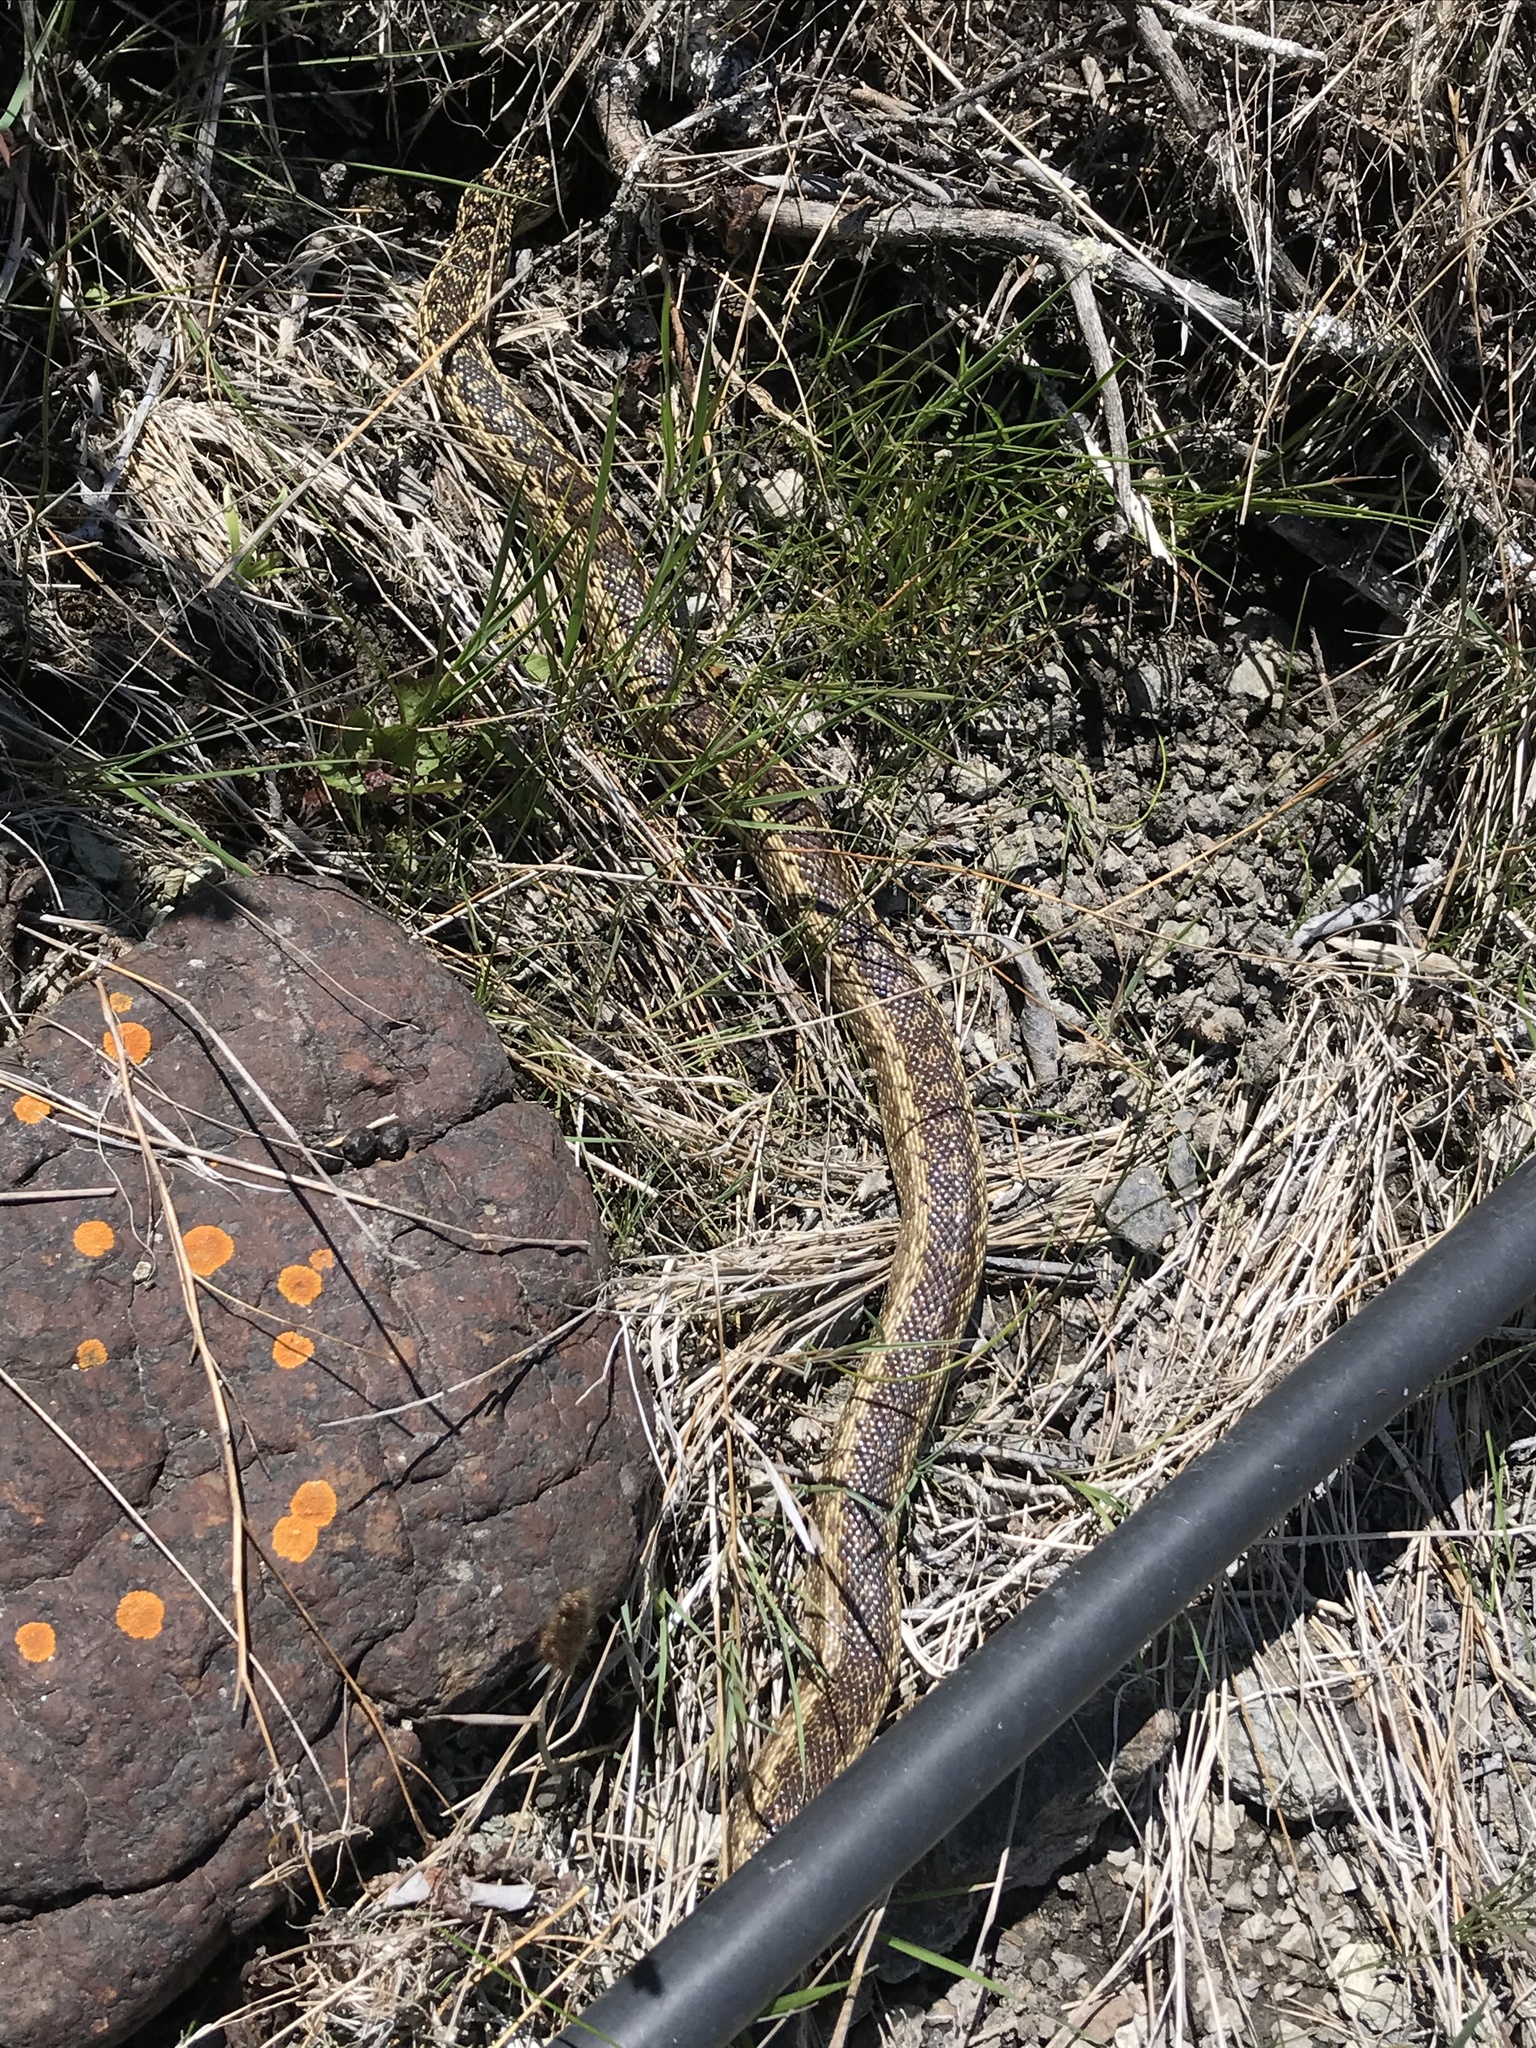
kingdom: Animalia
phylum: Chordata
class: Squamata
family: Colubridae
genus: Pituophis
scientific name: Pituophis catenifer
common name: Gopher snake
